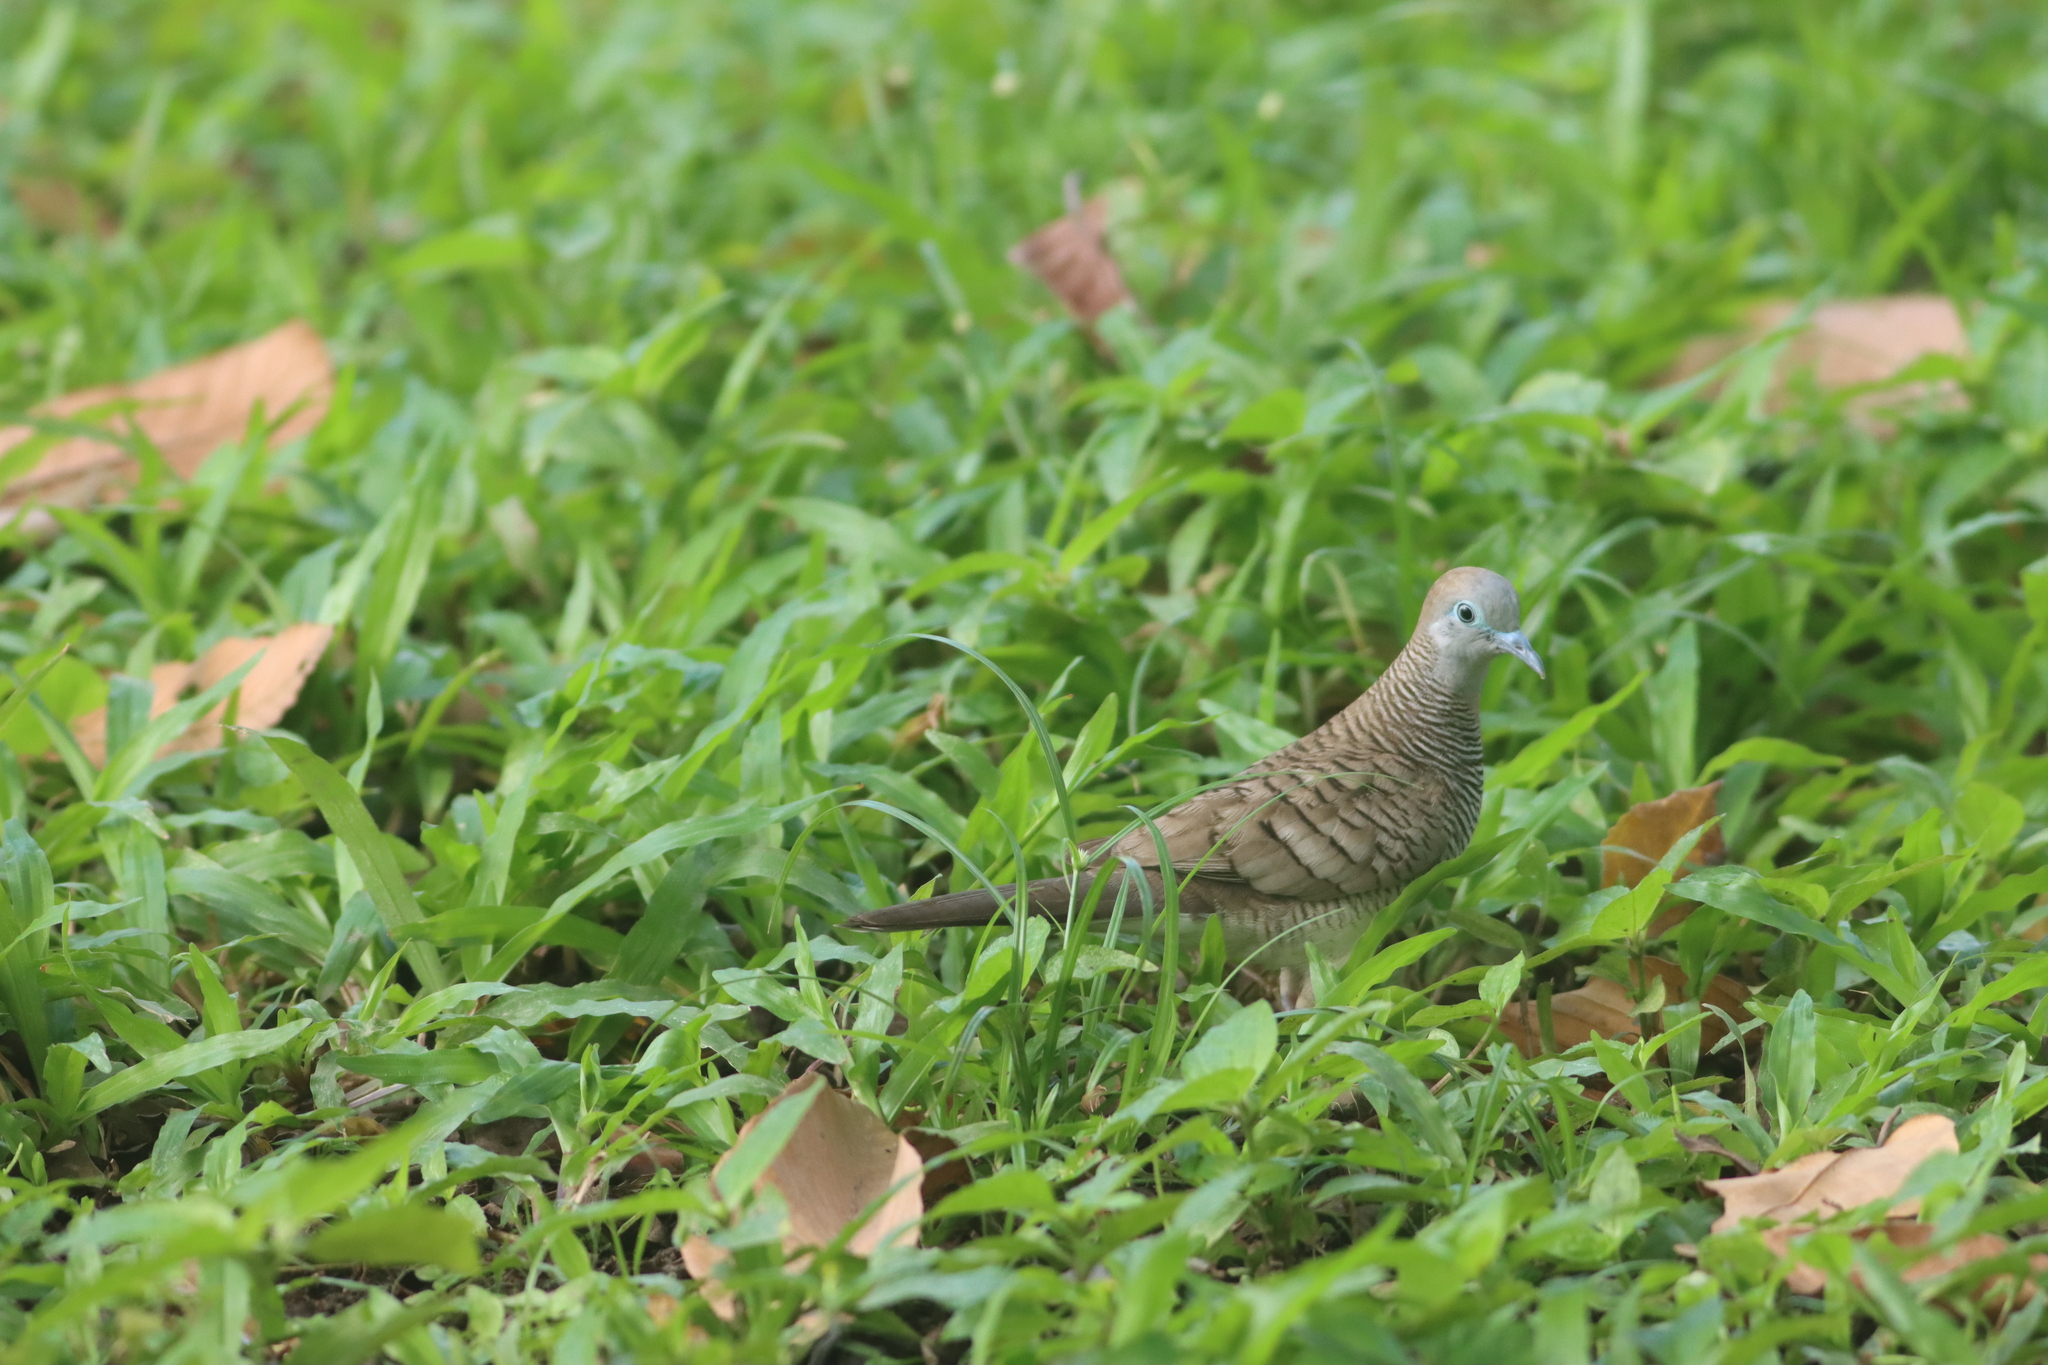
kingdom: Animalia
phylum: Chordata
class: Aves
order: Columbiformes
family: Columbidae
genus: Geopelia
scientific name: Geopelia striata
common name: Zebra dove
